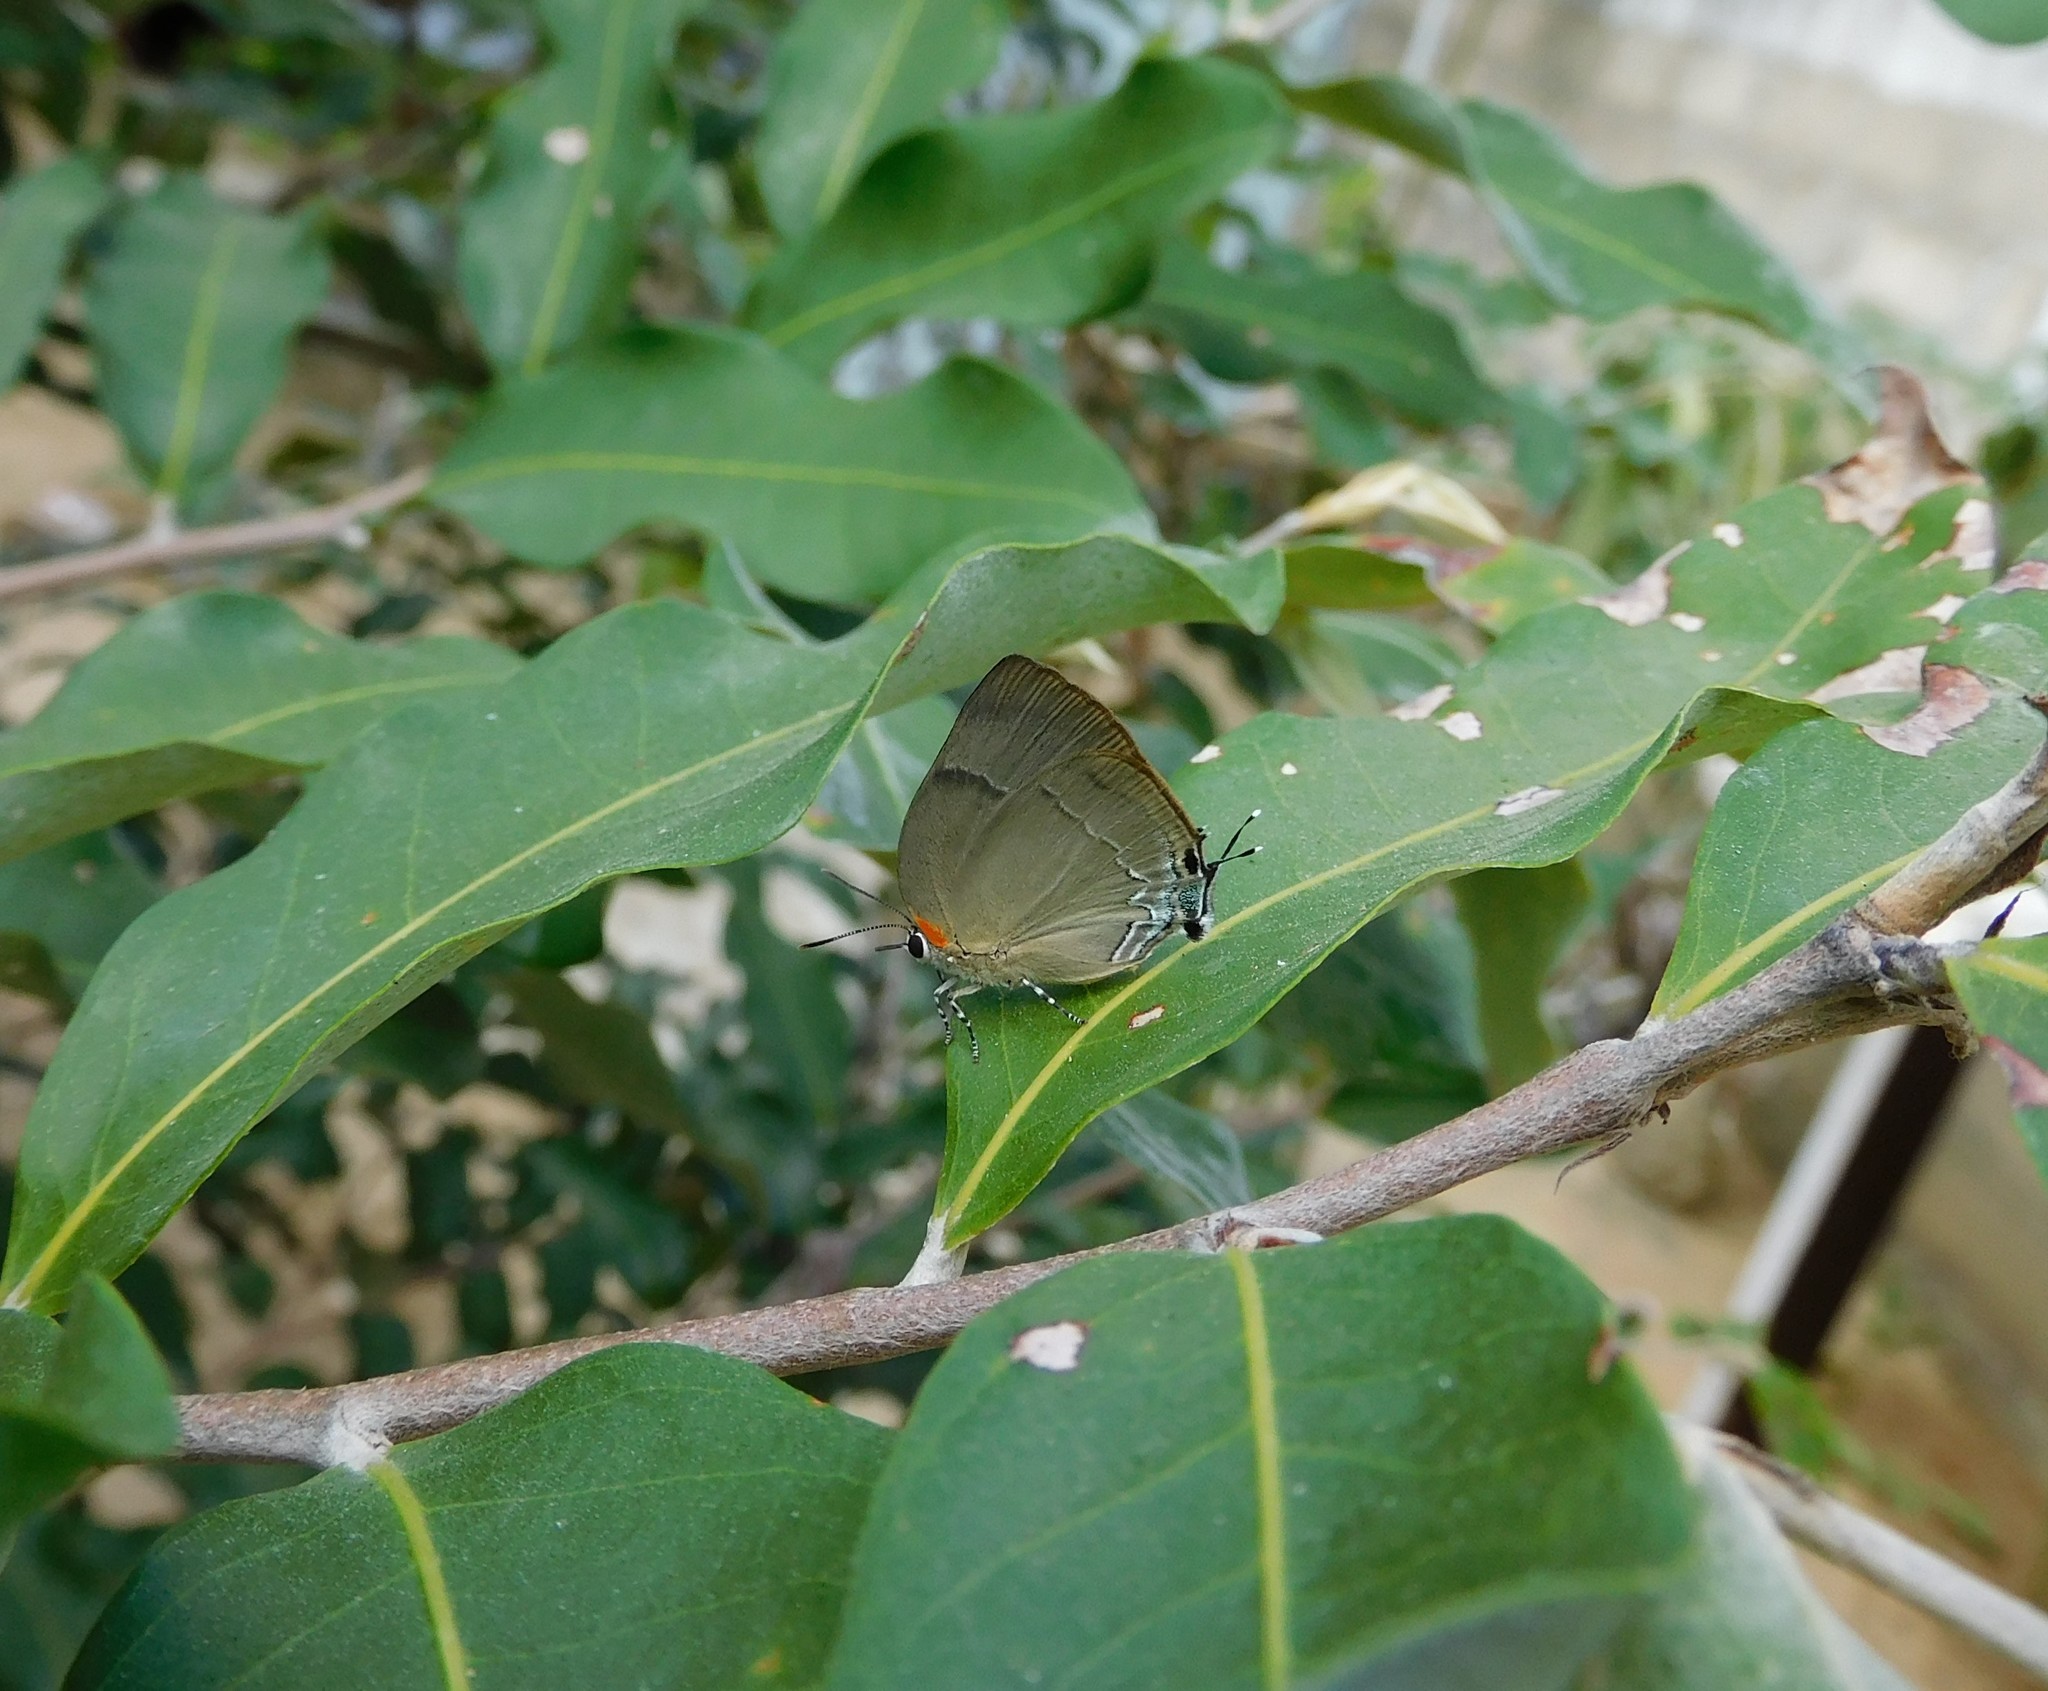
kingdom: Animalia
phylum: Arthropoda
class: Insecta
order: Lepidoptera
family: Lycaenidae
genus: Panthiades
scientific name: Panthiades bitias
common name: Bitias hairstreak
